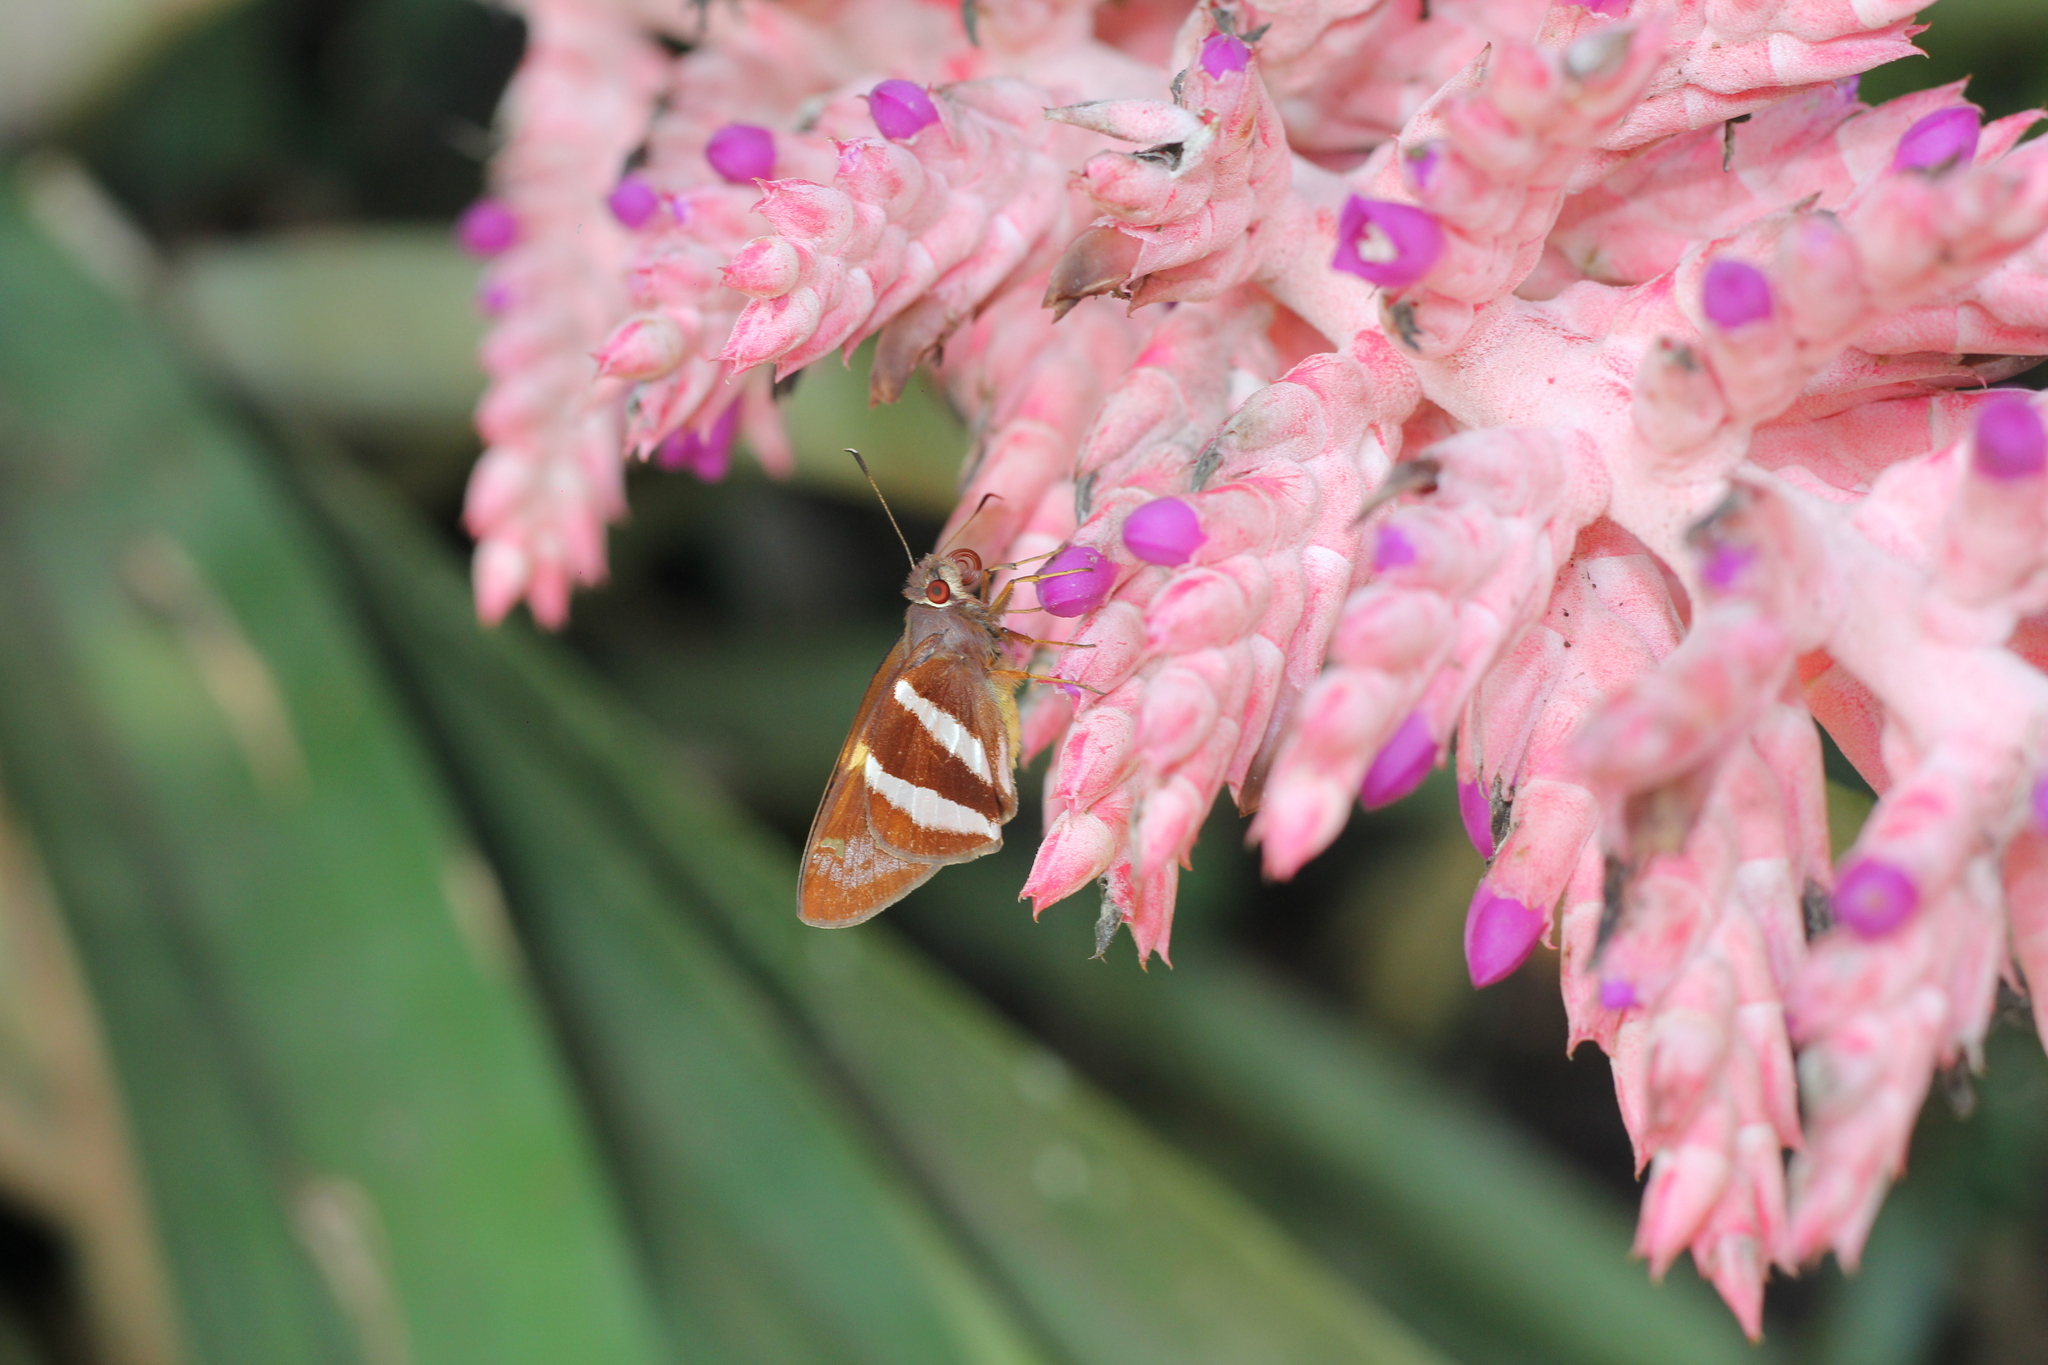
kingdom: Animalia
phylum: Arthropoda
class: Insecta
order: Lepidoptera
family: Hesperiidae
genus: Lycas
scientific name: Lycas argentea
